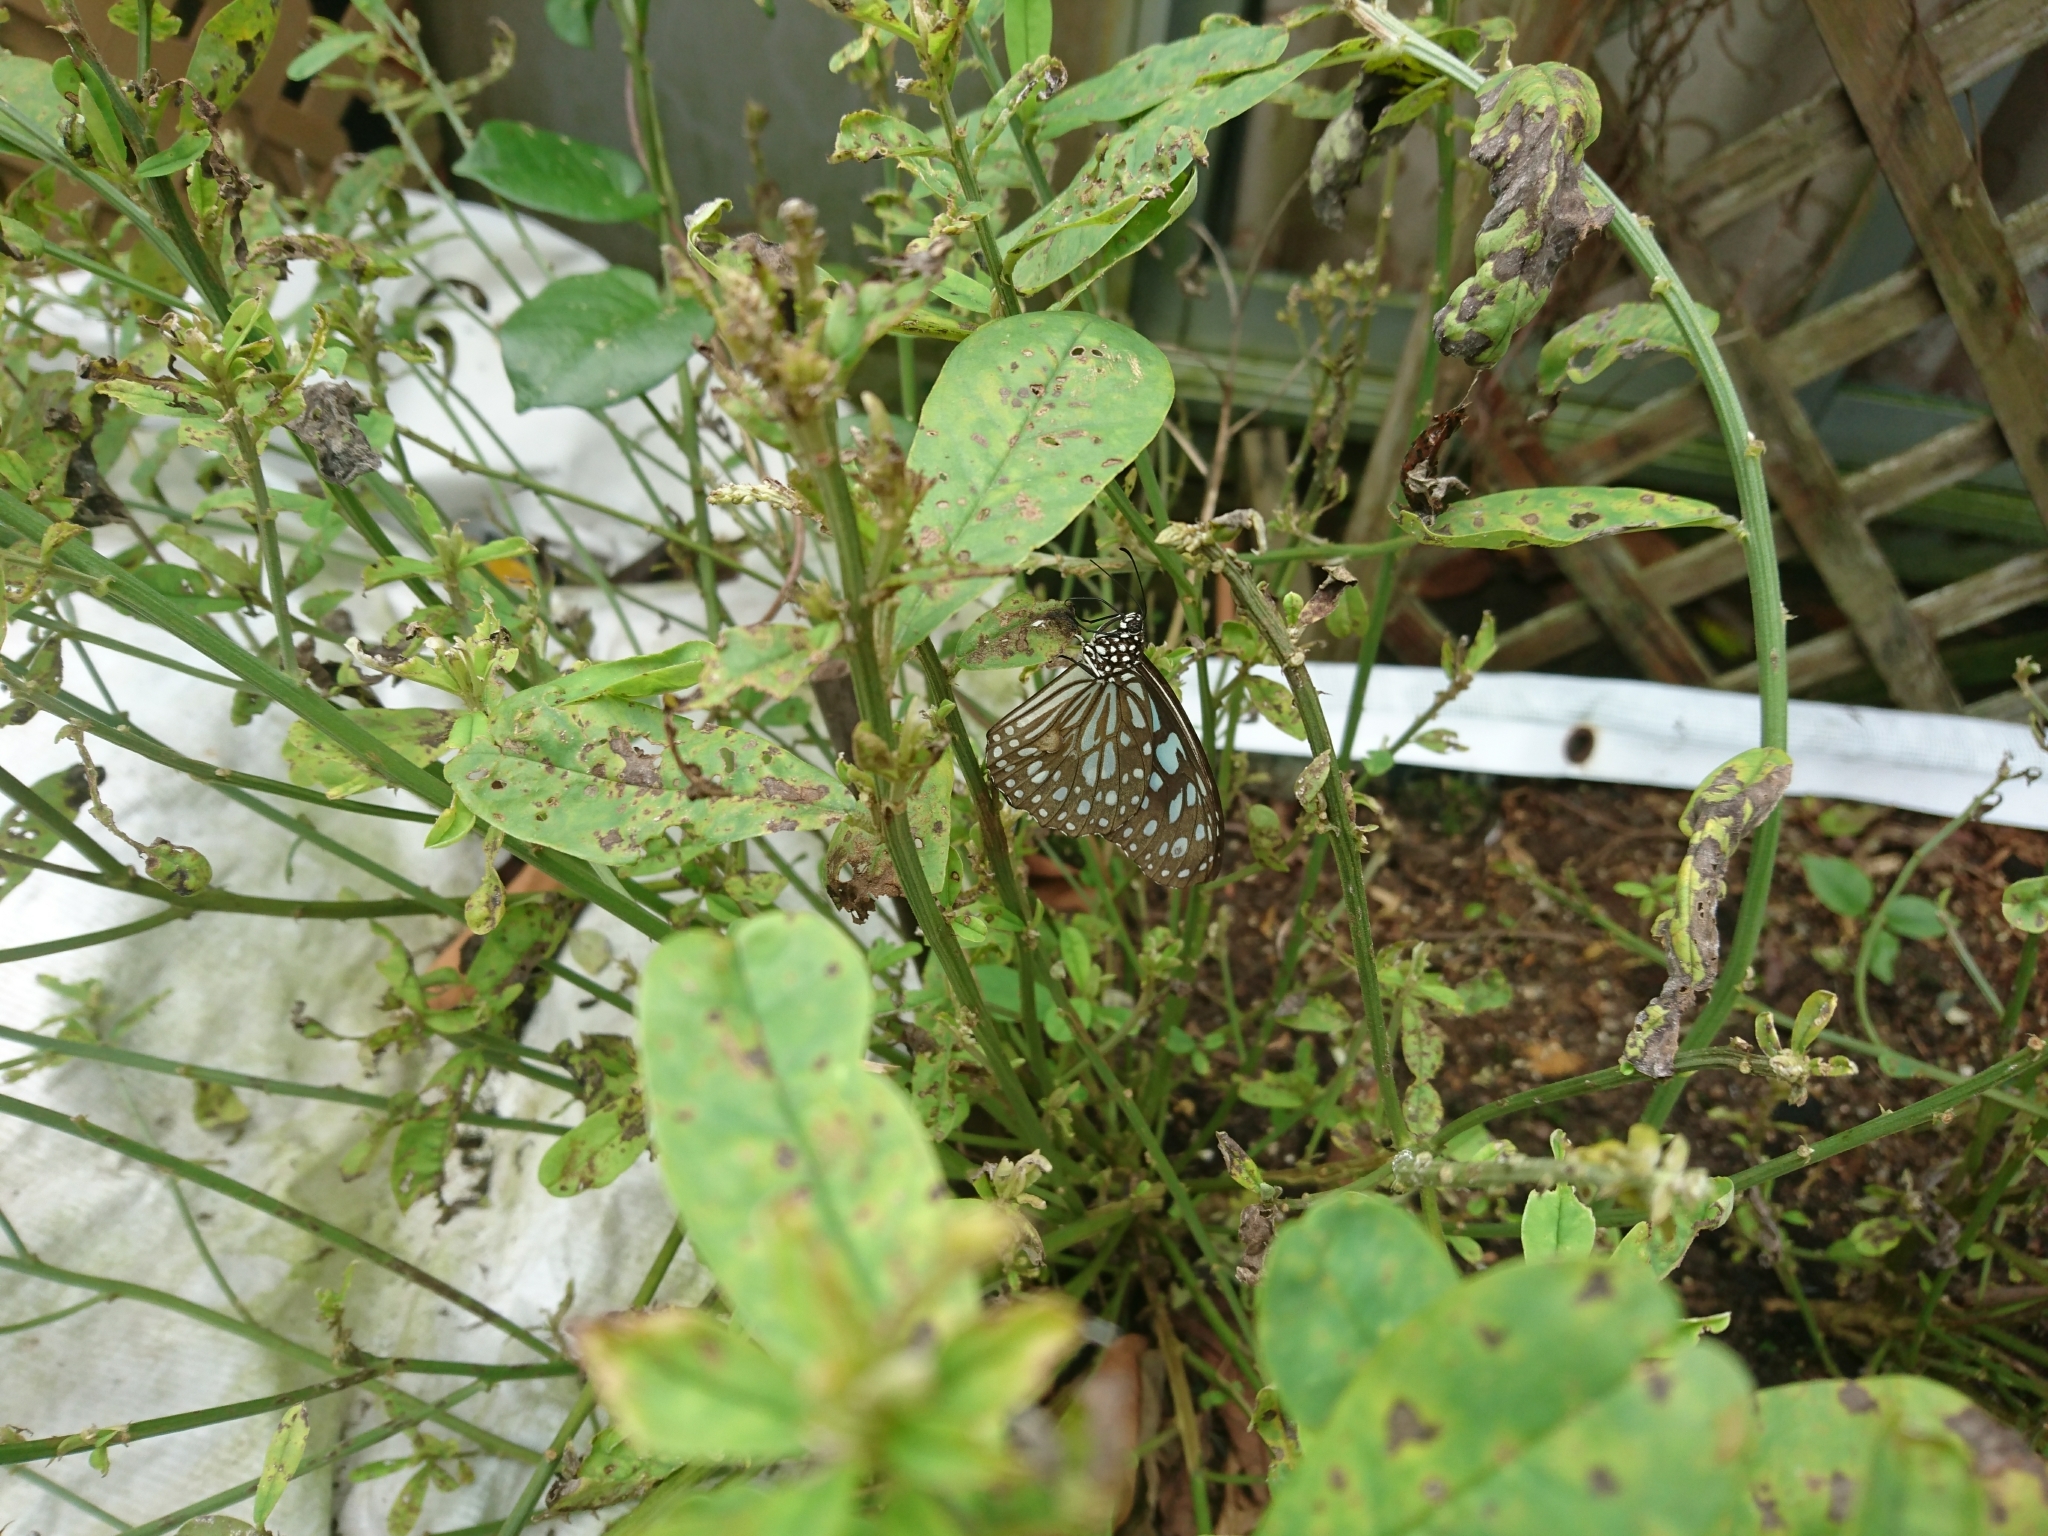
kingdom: Animalia
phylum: Arthropoda
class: Insecta
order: Lepidoptera
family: Nymphalidae
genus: Tirumala
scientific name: Tirumala limniace
